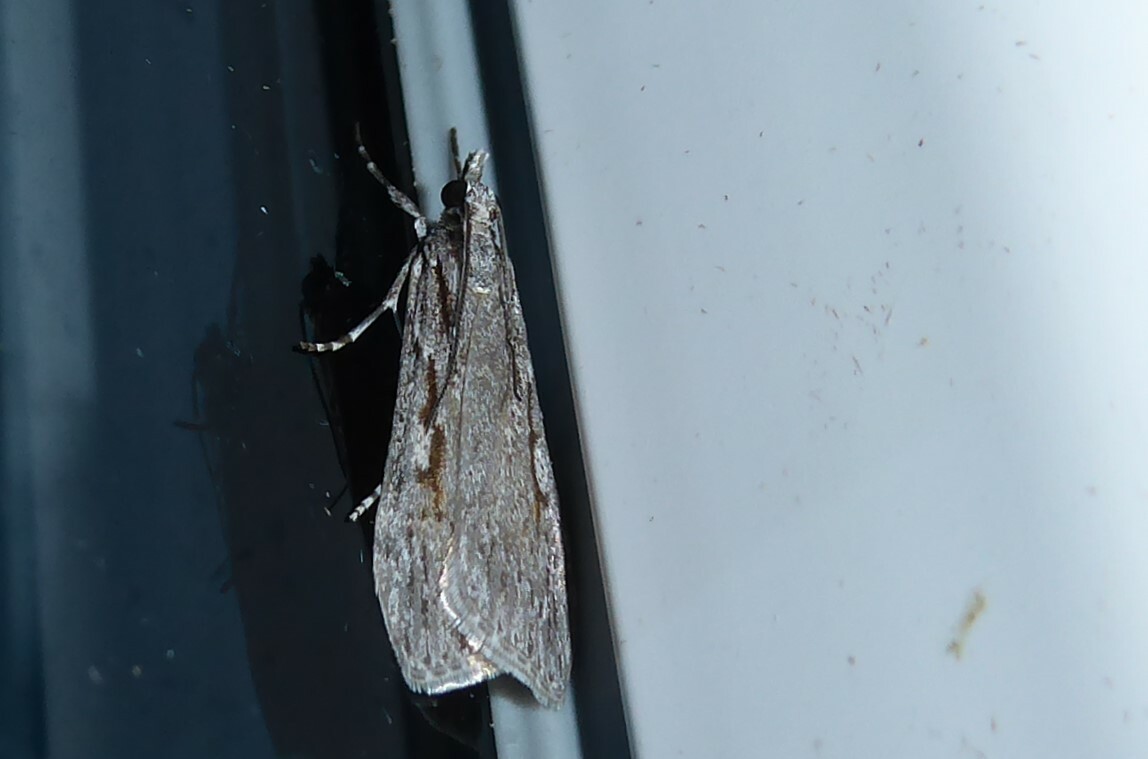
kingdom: Animalia
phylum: Arthropoda
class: Insecta
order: Lepidoptera
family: Crambidae
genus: Scoparia
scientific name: Scoparia indistinctalis
